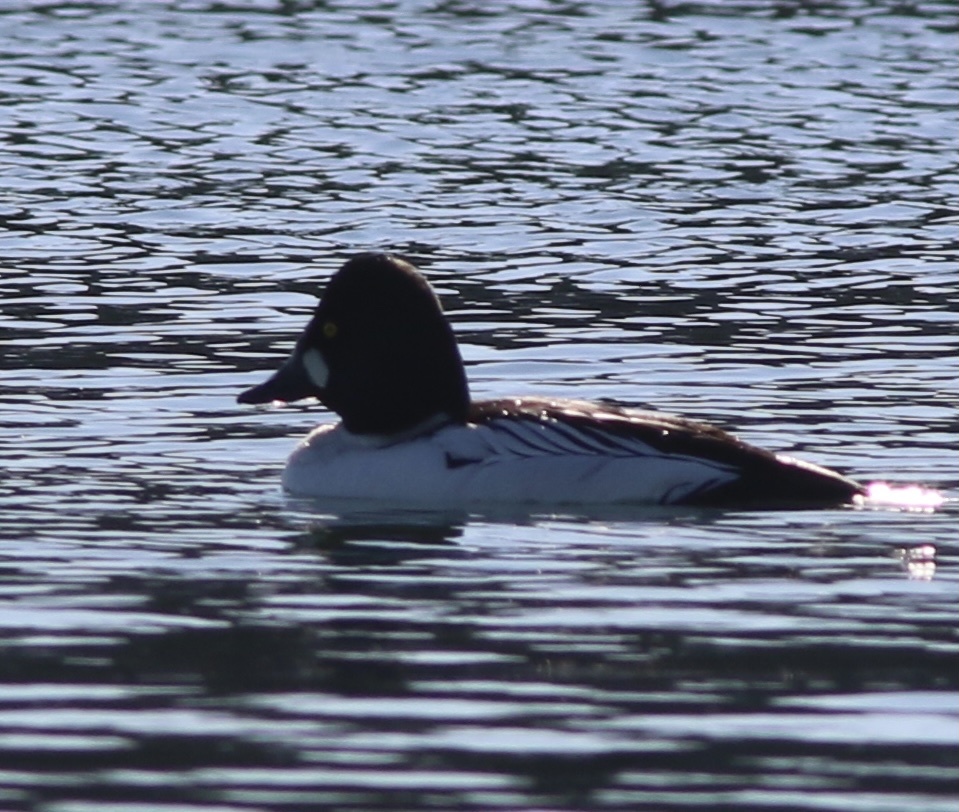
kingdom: Animalia
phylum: Chordata
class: Aves
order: Anseriformes
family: Anatidae
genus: Bucephala
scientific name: Bucephala clangula
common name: Common goldeneye
